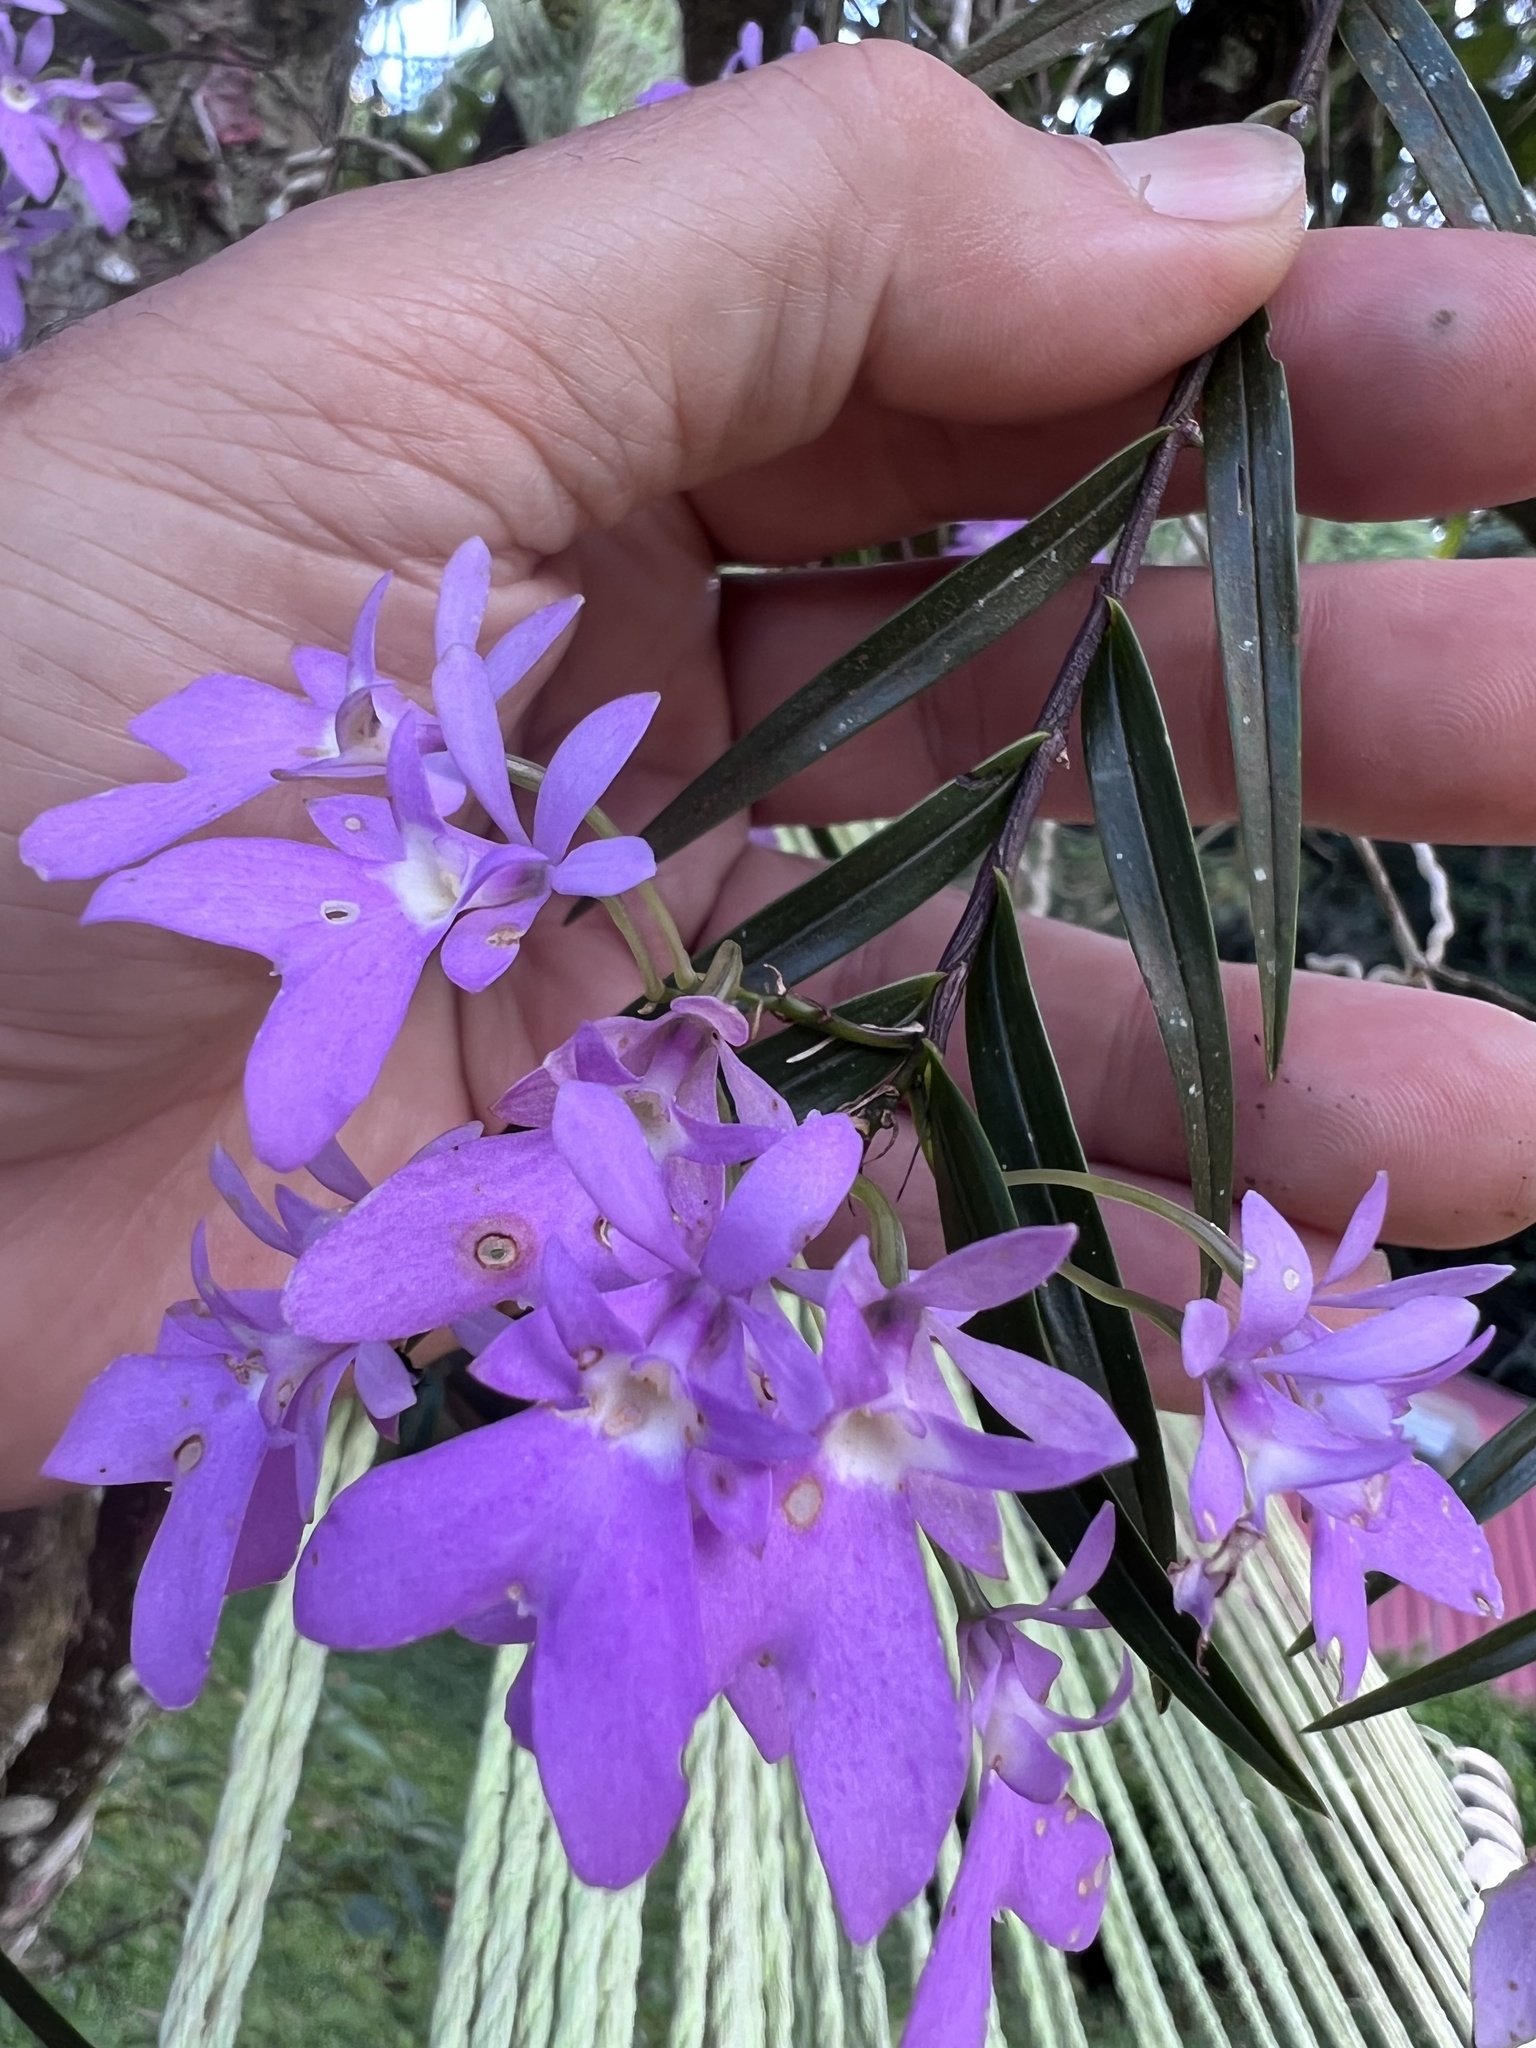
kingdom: Plantae
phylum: Tracheophyta
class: Liliopsida
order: Asparagales
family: Orchidaceae
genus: Epidendrum
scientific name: Epidendrum centropetalum
